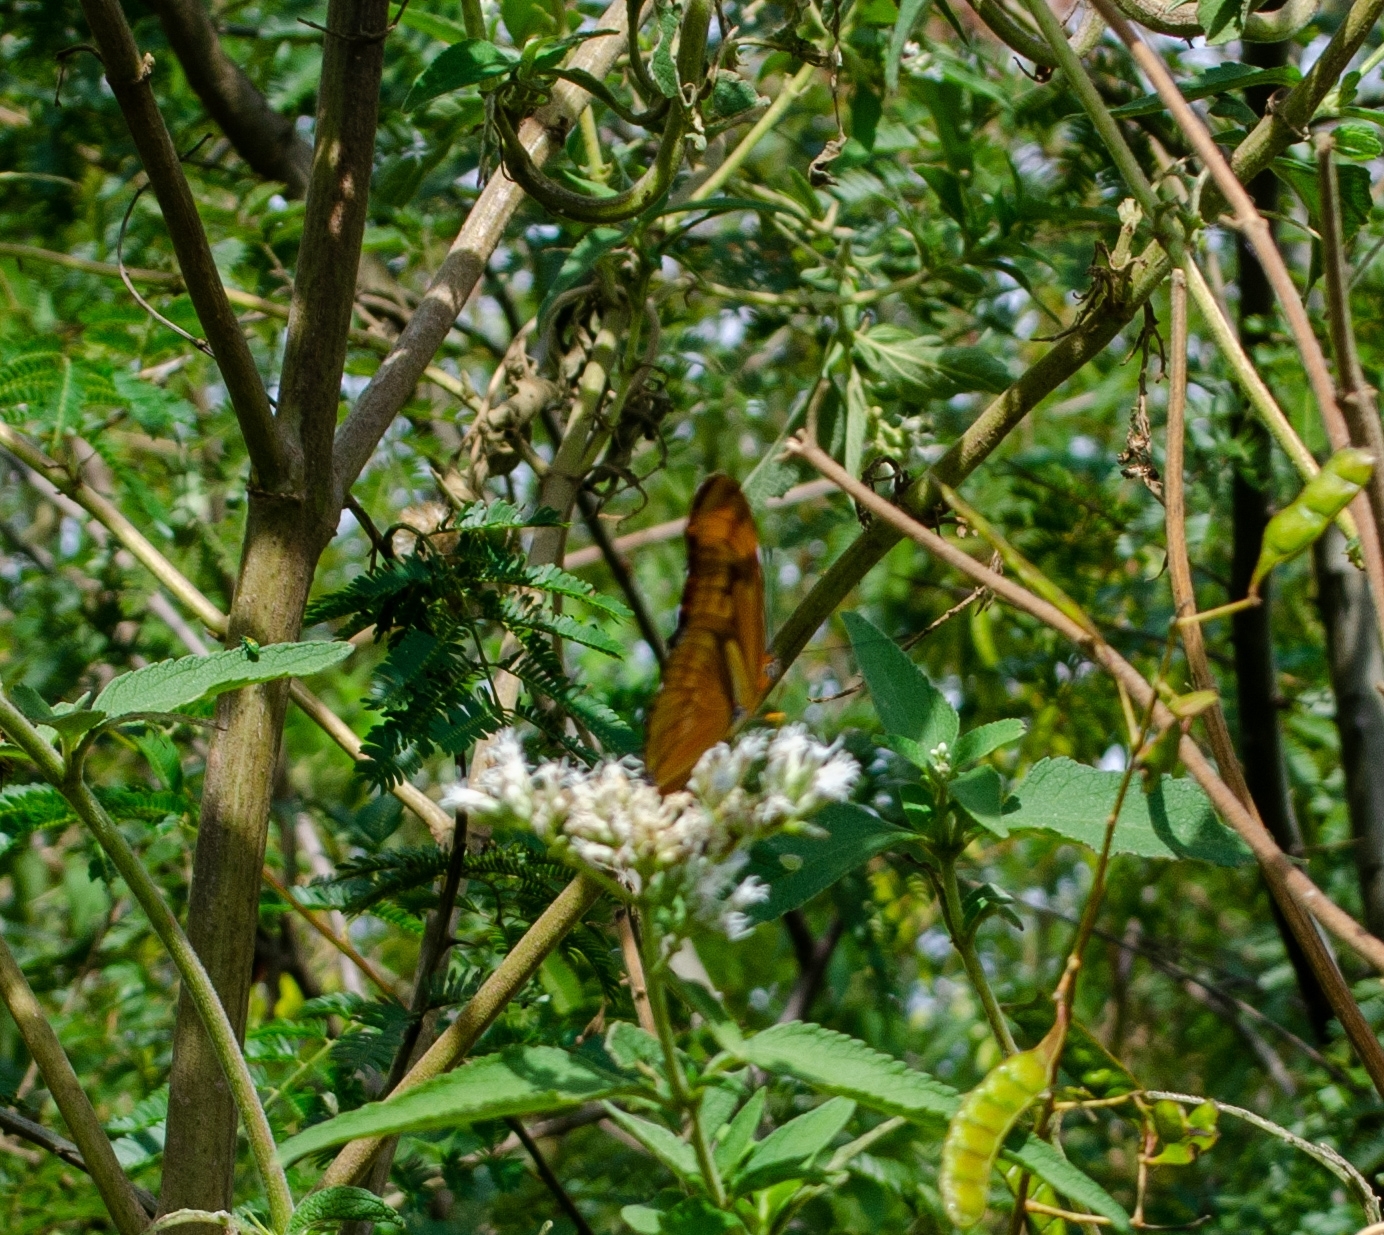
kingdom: Animalia
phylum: Arthropoda
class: Insecta
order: Lepidoptera
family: Nymphalidae
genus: Dryas
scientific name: Dryas iulia
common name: Flambeau
